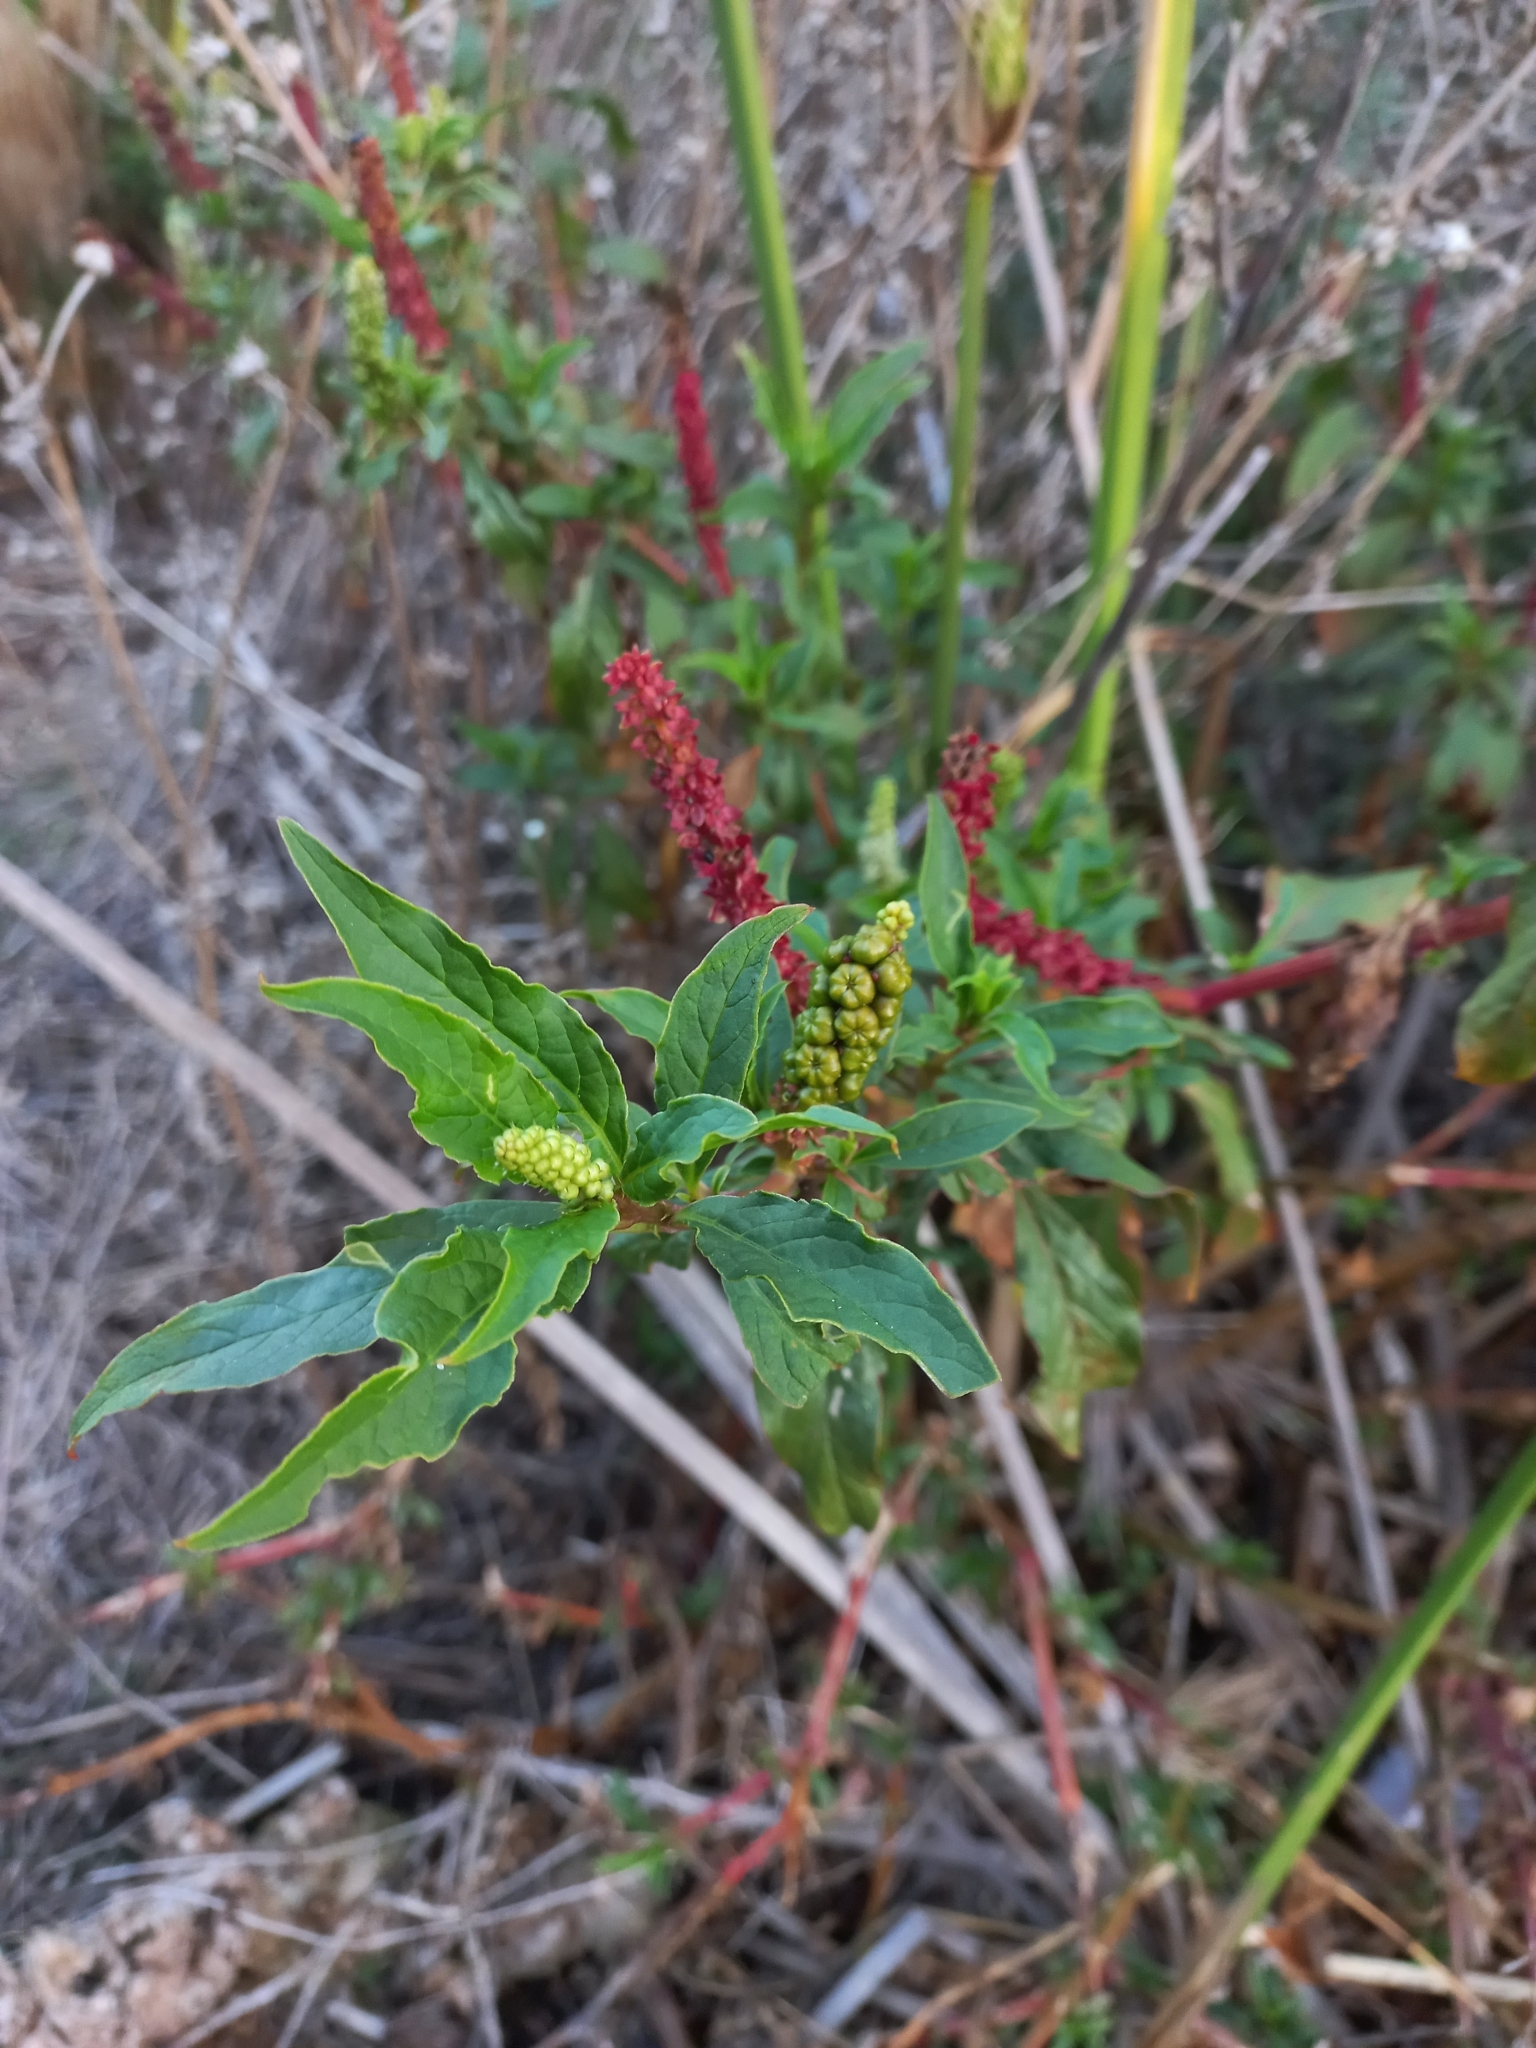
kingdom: Plantae
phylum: Tracheophyta
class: Magnoliopsida
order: Caryophyllales
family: Phytolaccaceae
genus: Phytolacca
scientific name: Phytolacca icosandra
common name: Button pokeweed
